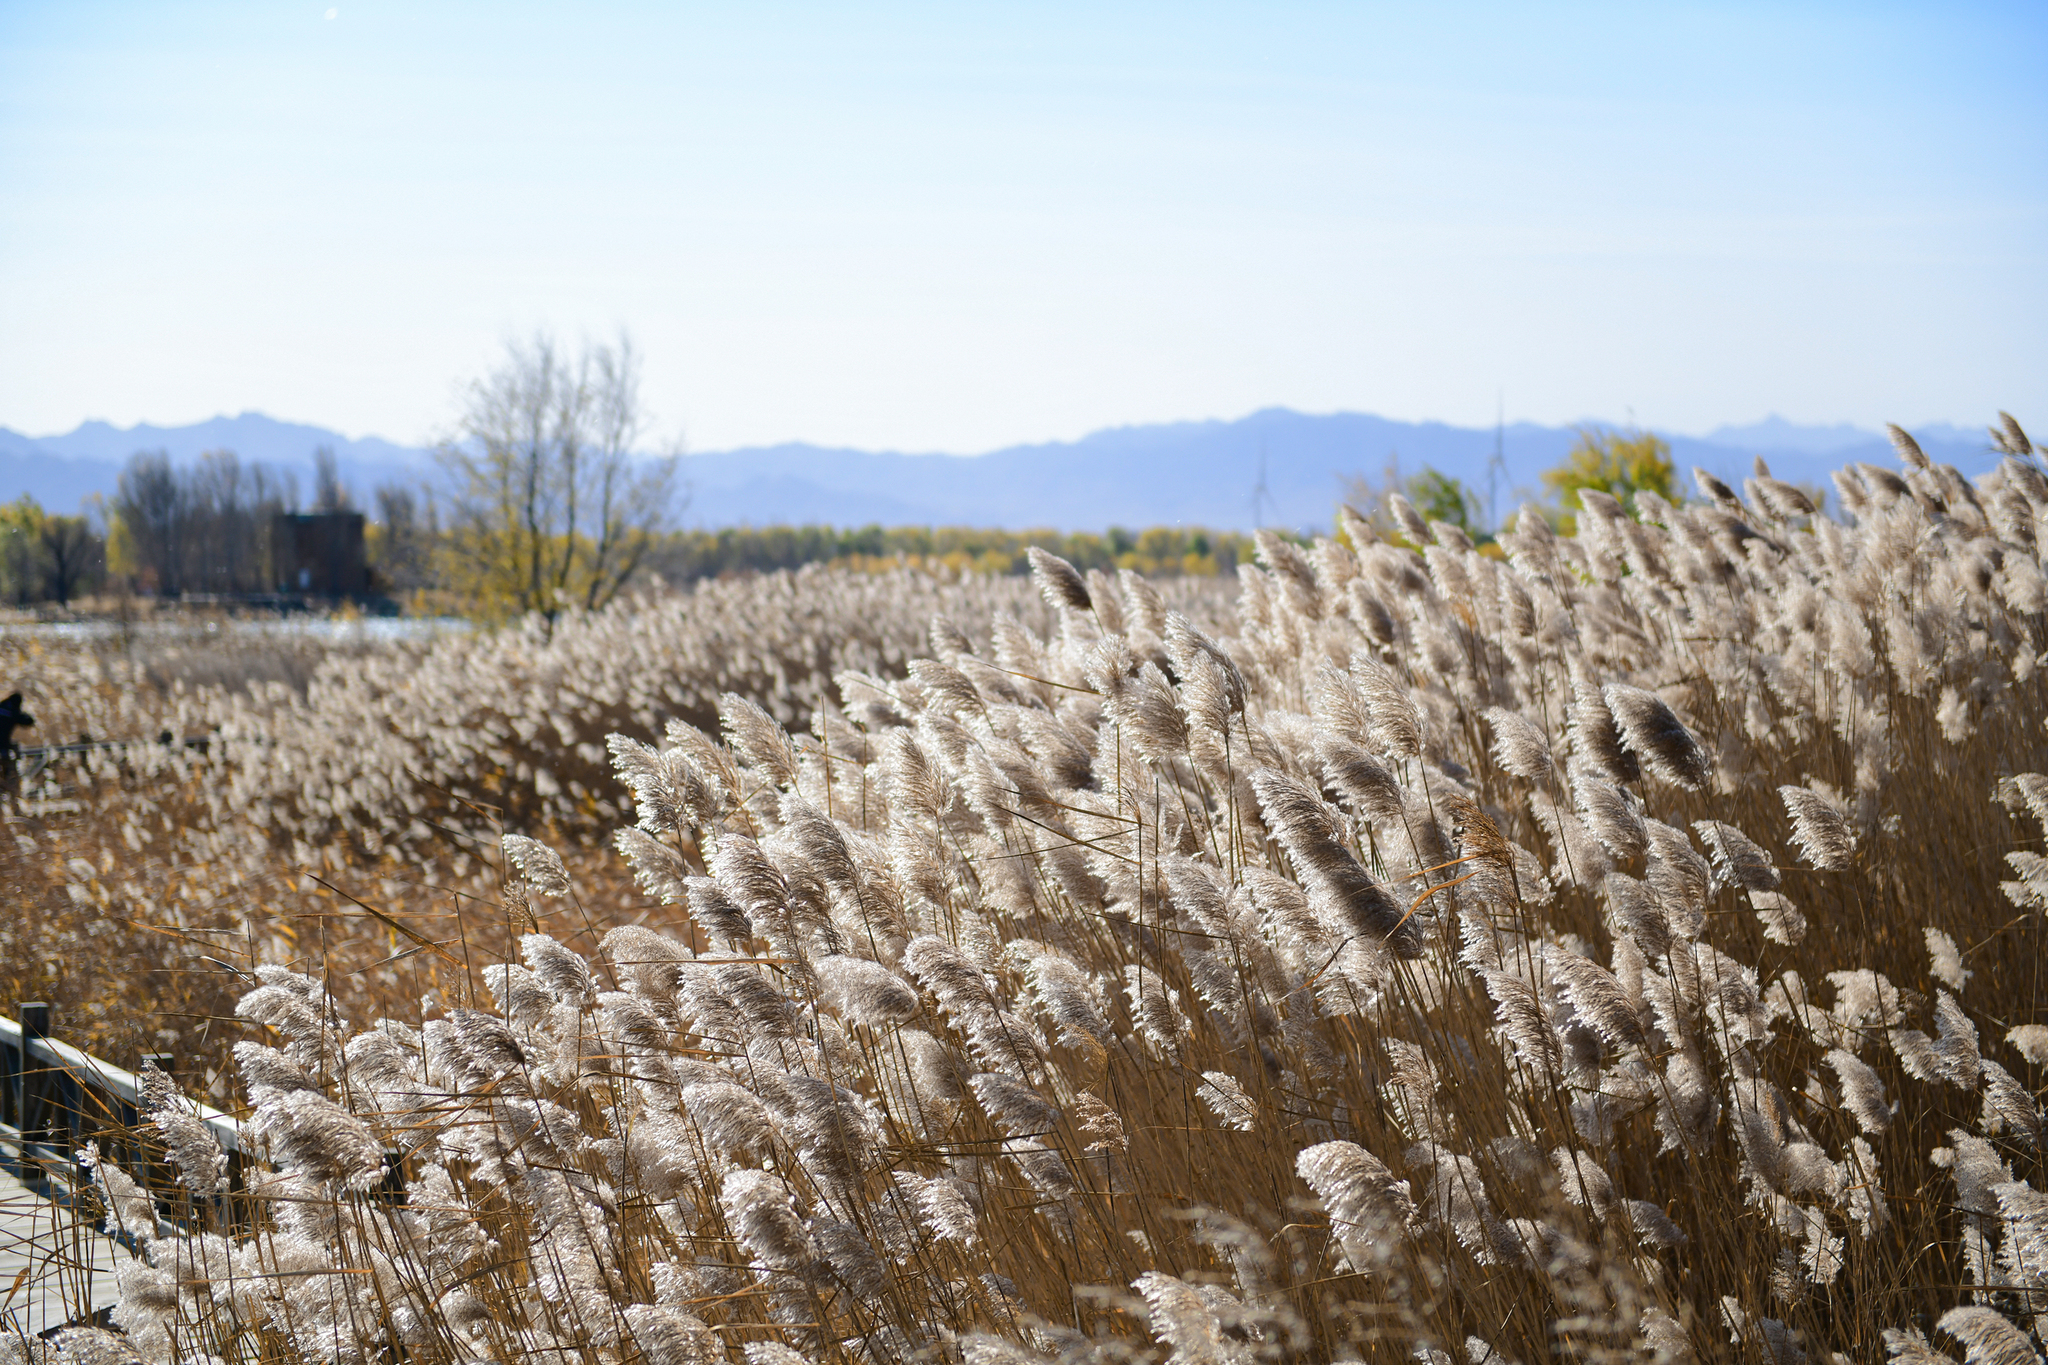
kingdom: Plantae
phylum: Tracheophyta
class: Liliopsida
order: Poales
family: Poaceae
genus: Phragmites
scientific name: Phragmites australis
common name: Common reed
